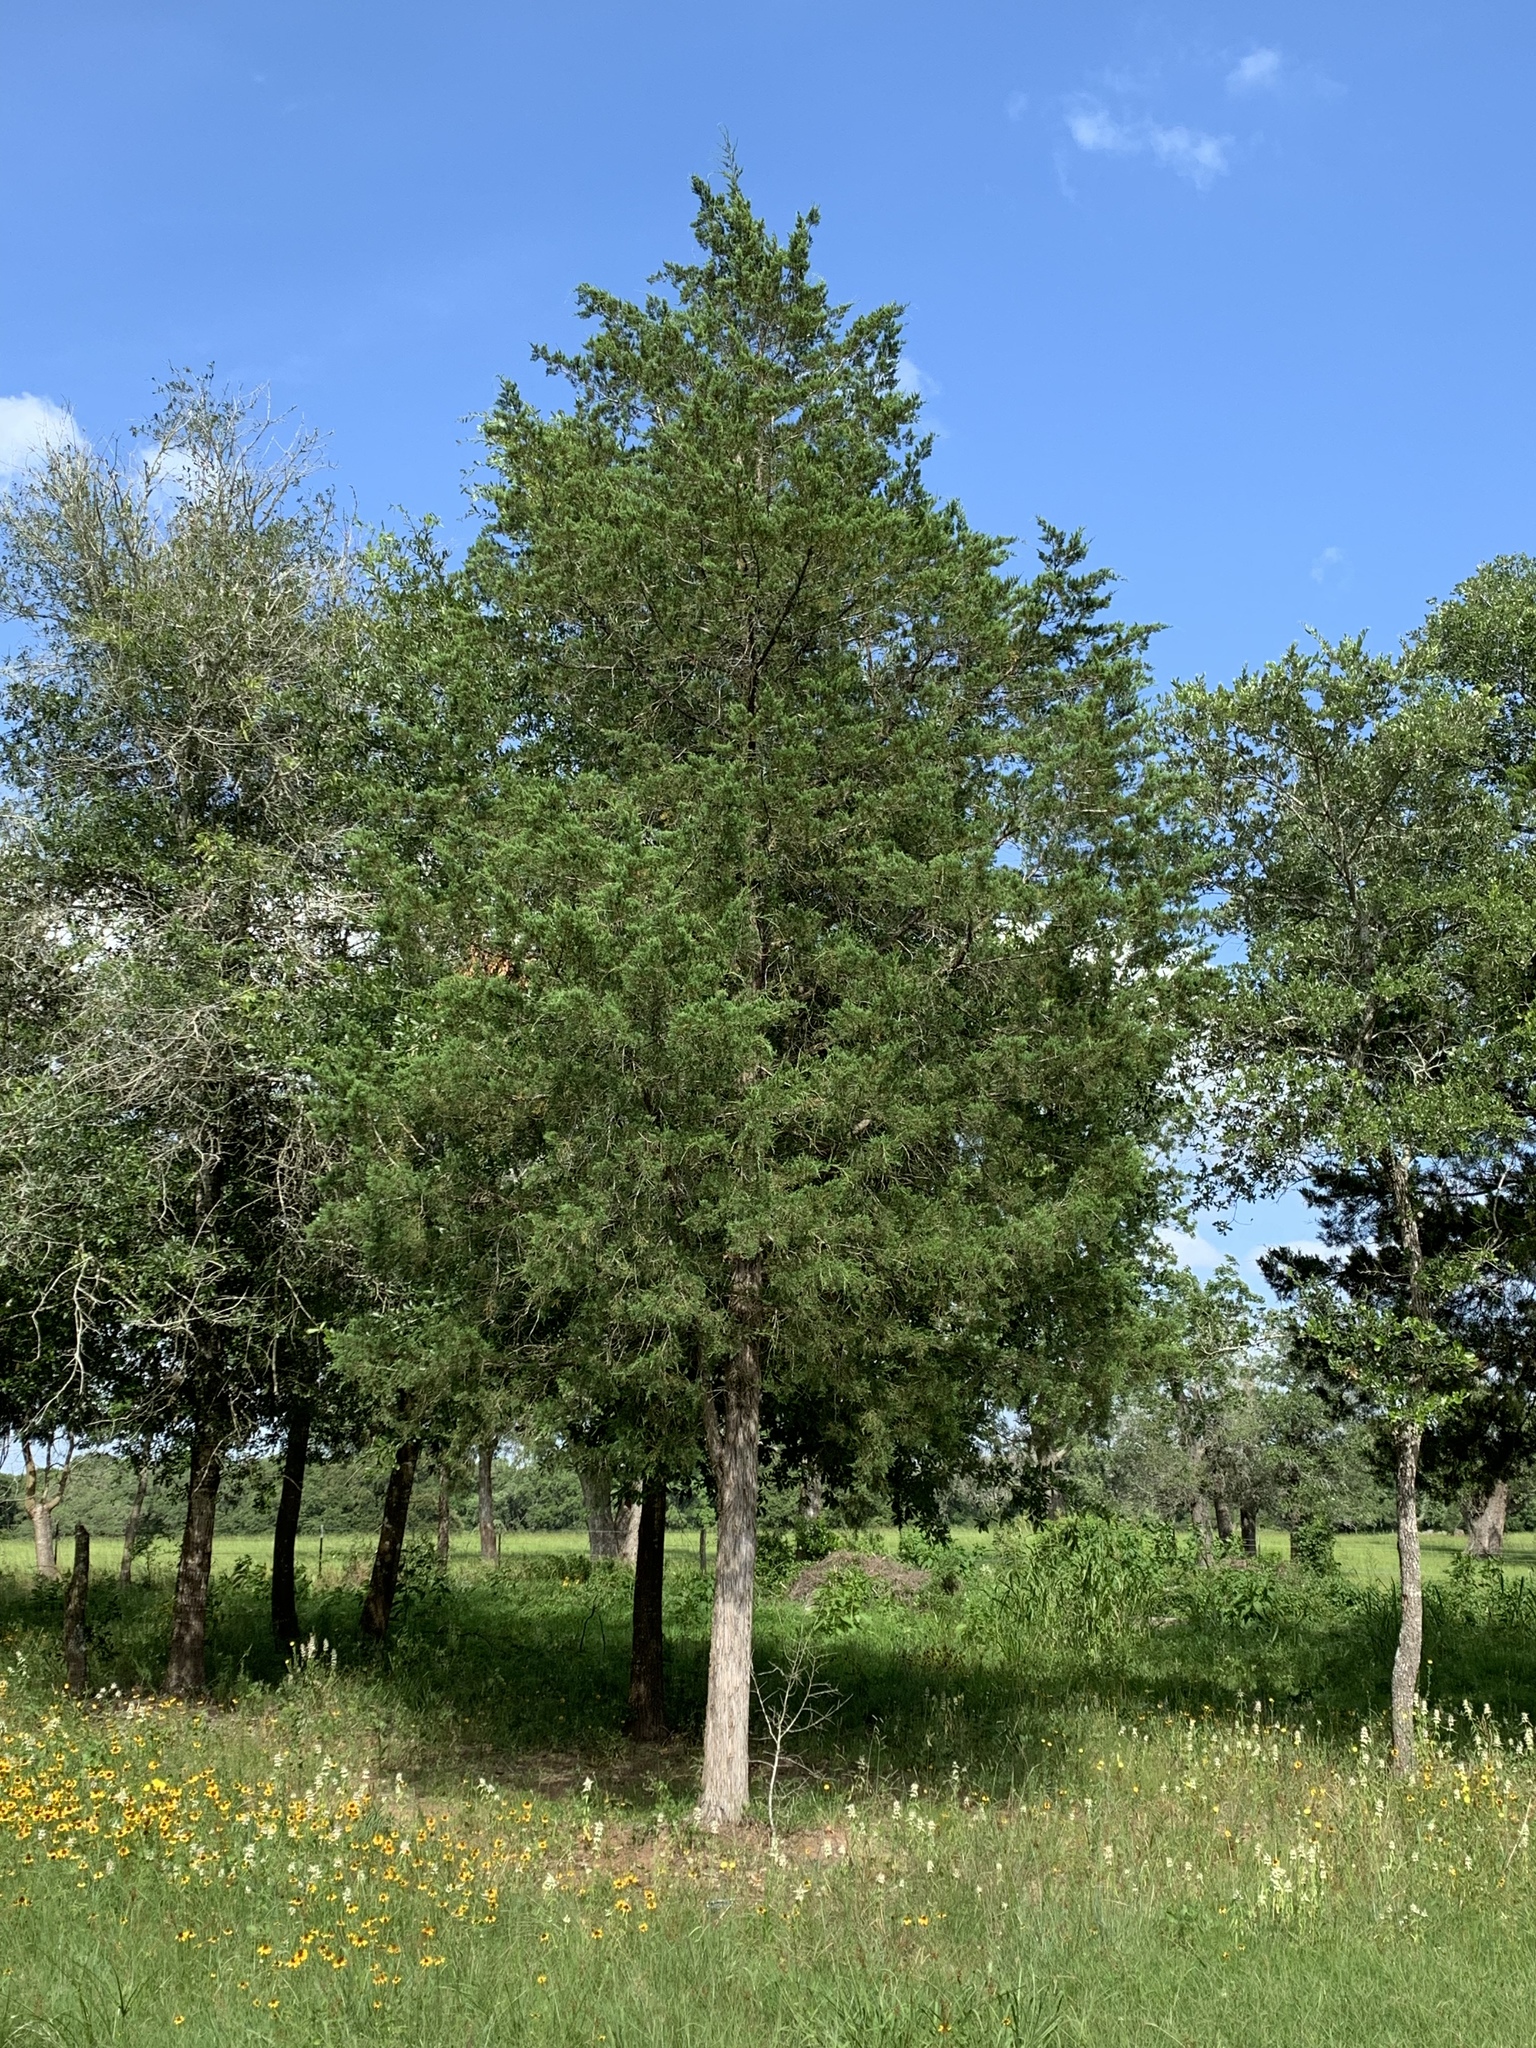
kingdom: Plantae
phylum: Tracheophyta
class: Pinopsida
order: Pinales
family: Cupressaceae
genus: Juniperus
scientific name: Juniperus virginiana
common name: Red juniper
